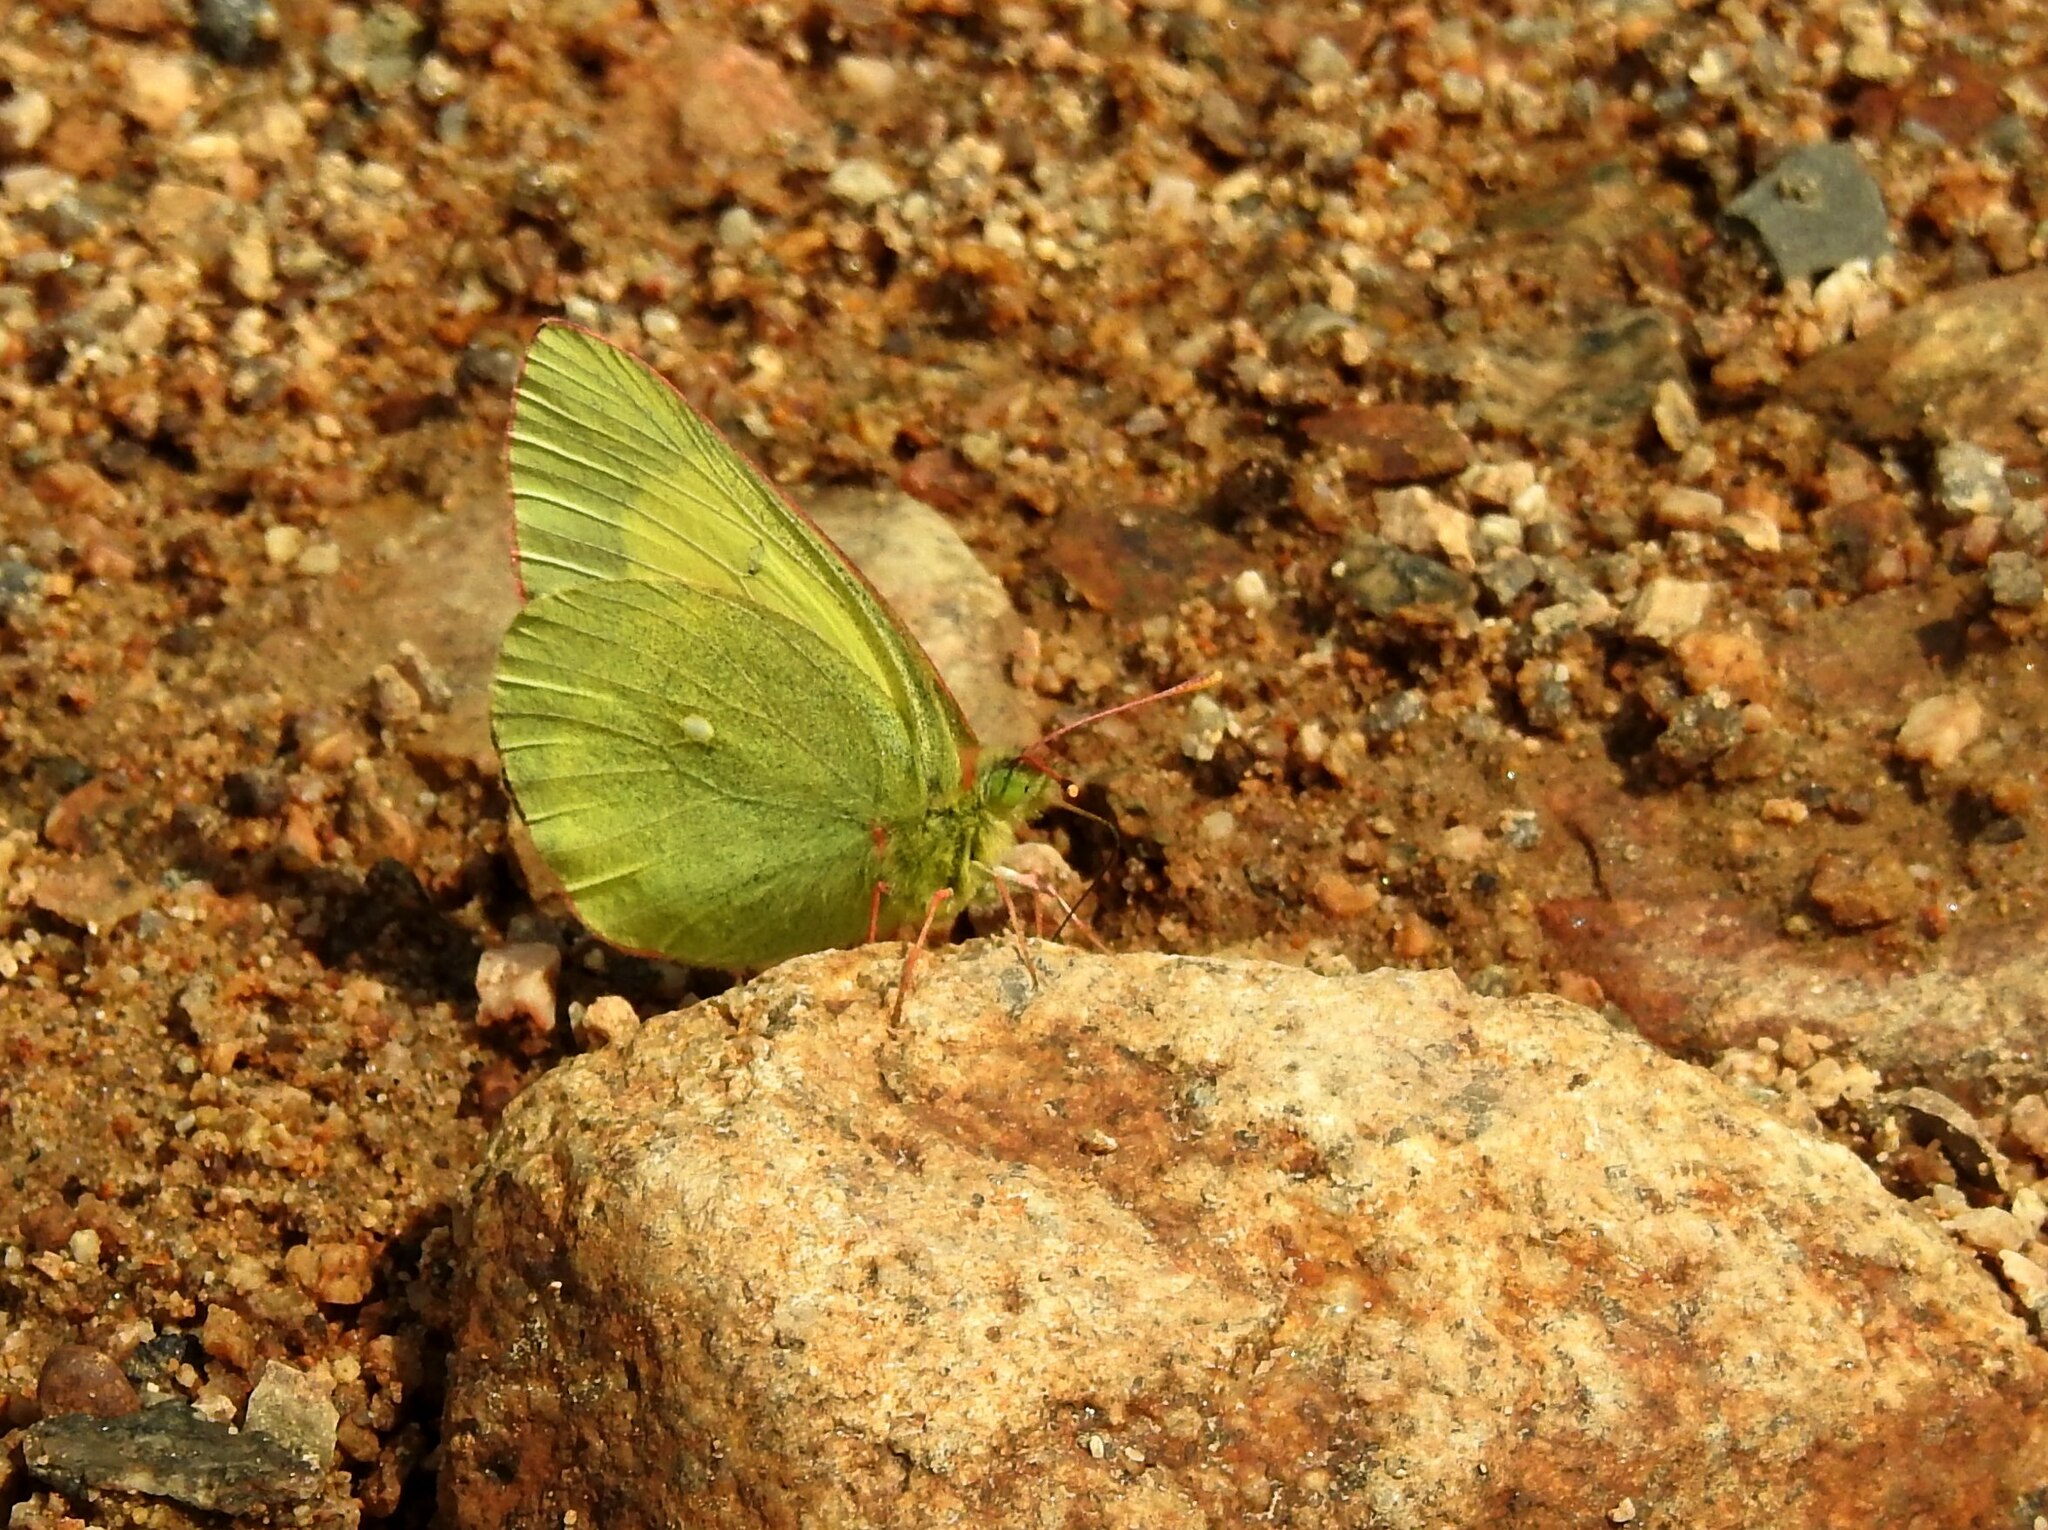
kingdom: Animalia
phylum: Arthropoda
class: Insecta
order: Lepidoptera
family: Pieridae
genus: Colias
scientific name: Colias palaeno
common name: Moorland clouded yellow
